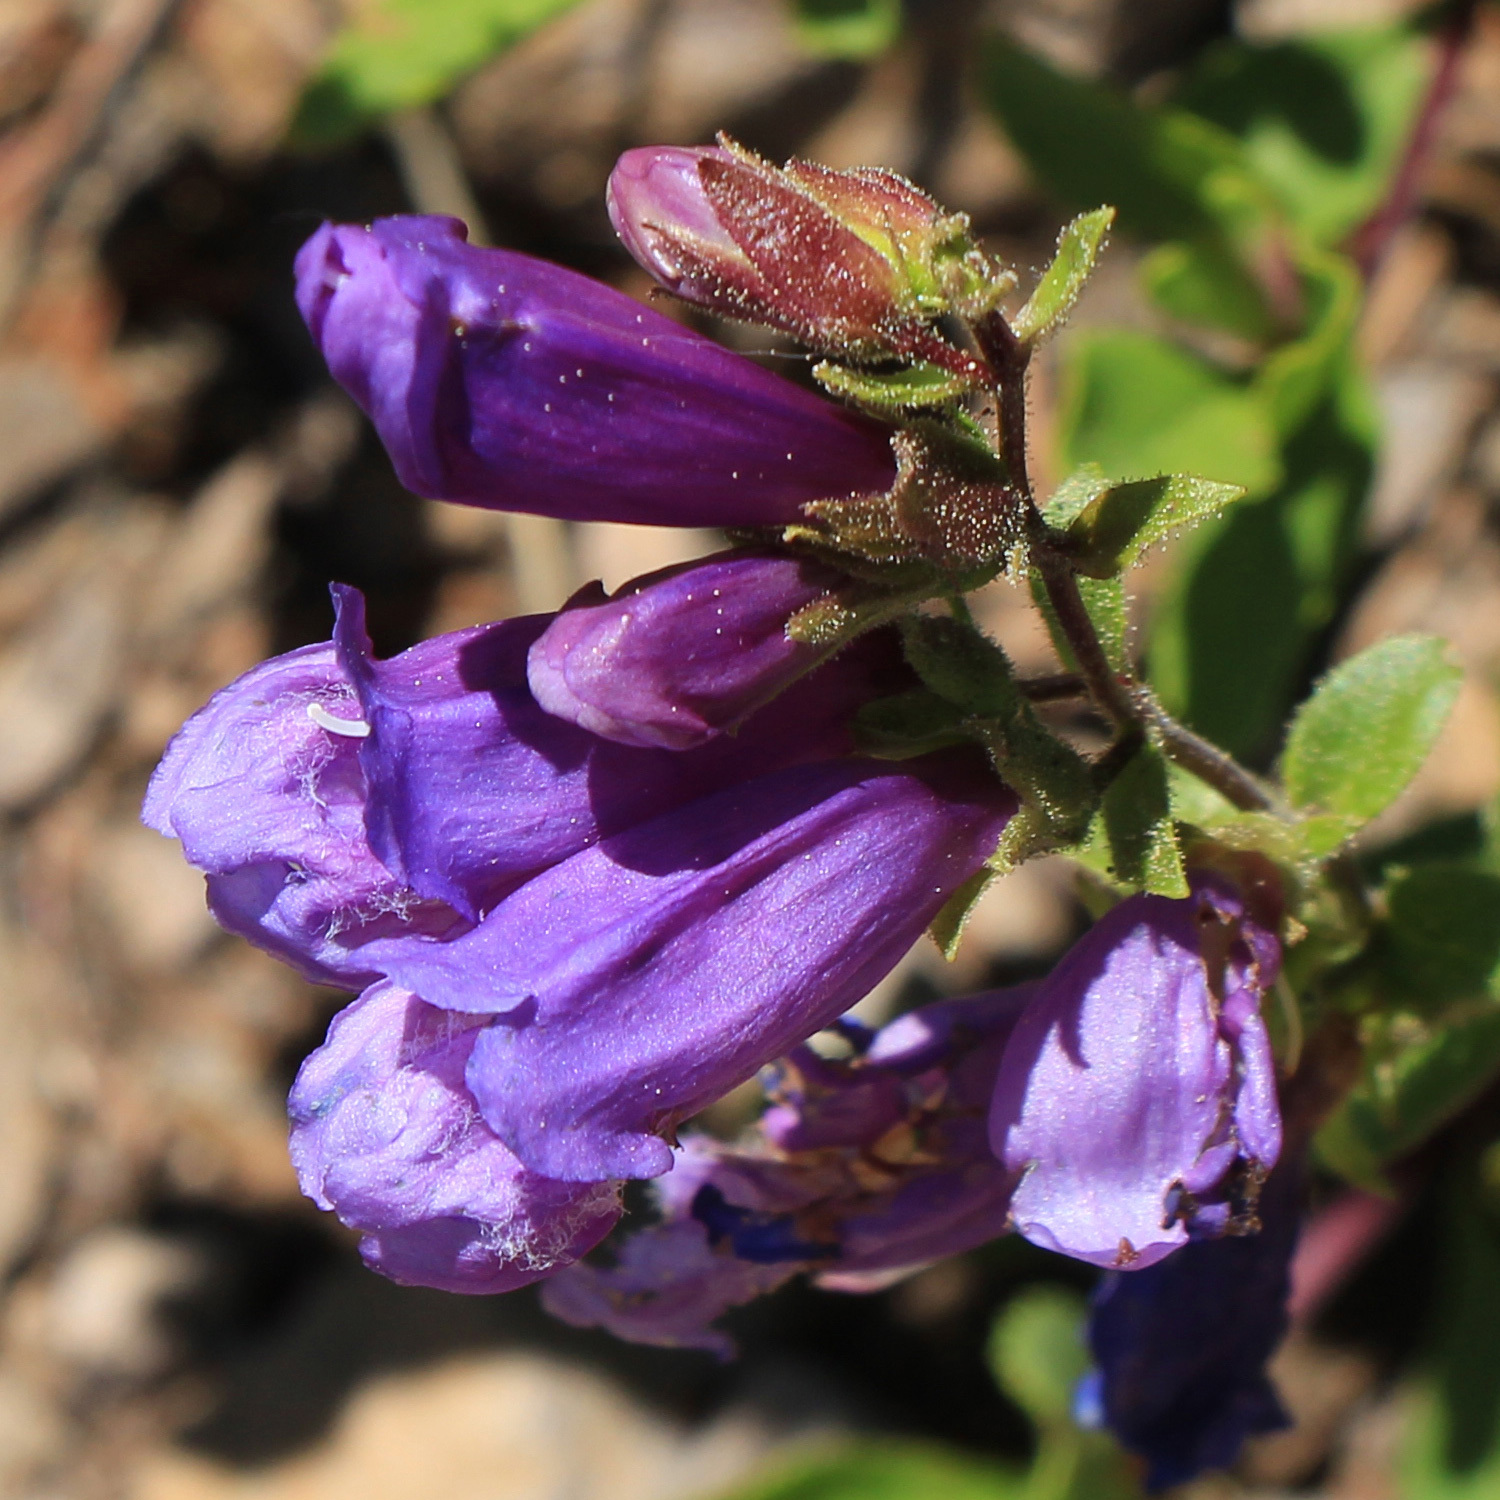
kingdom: Plantae
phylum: Tracheophyta
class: Magnoliopsida
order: Lamiales
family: Plantaginaceae
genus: Penstemon
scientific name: Penstemon cardwellii
